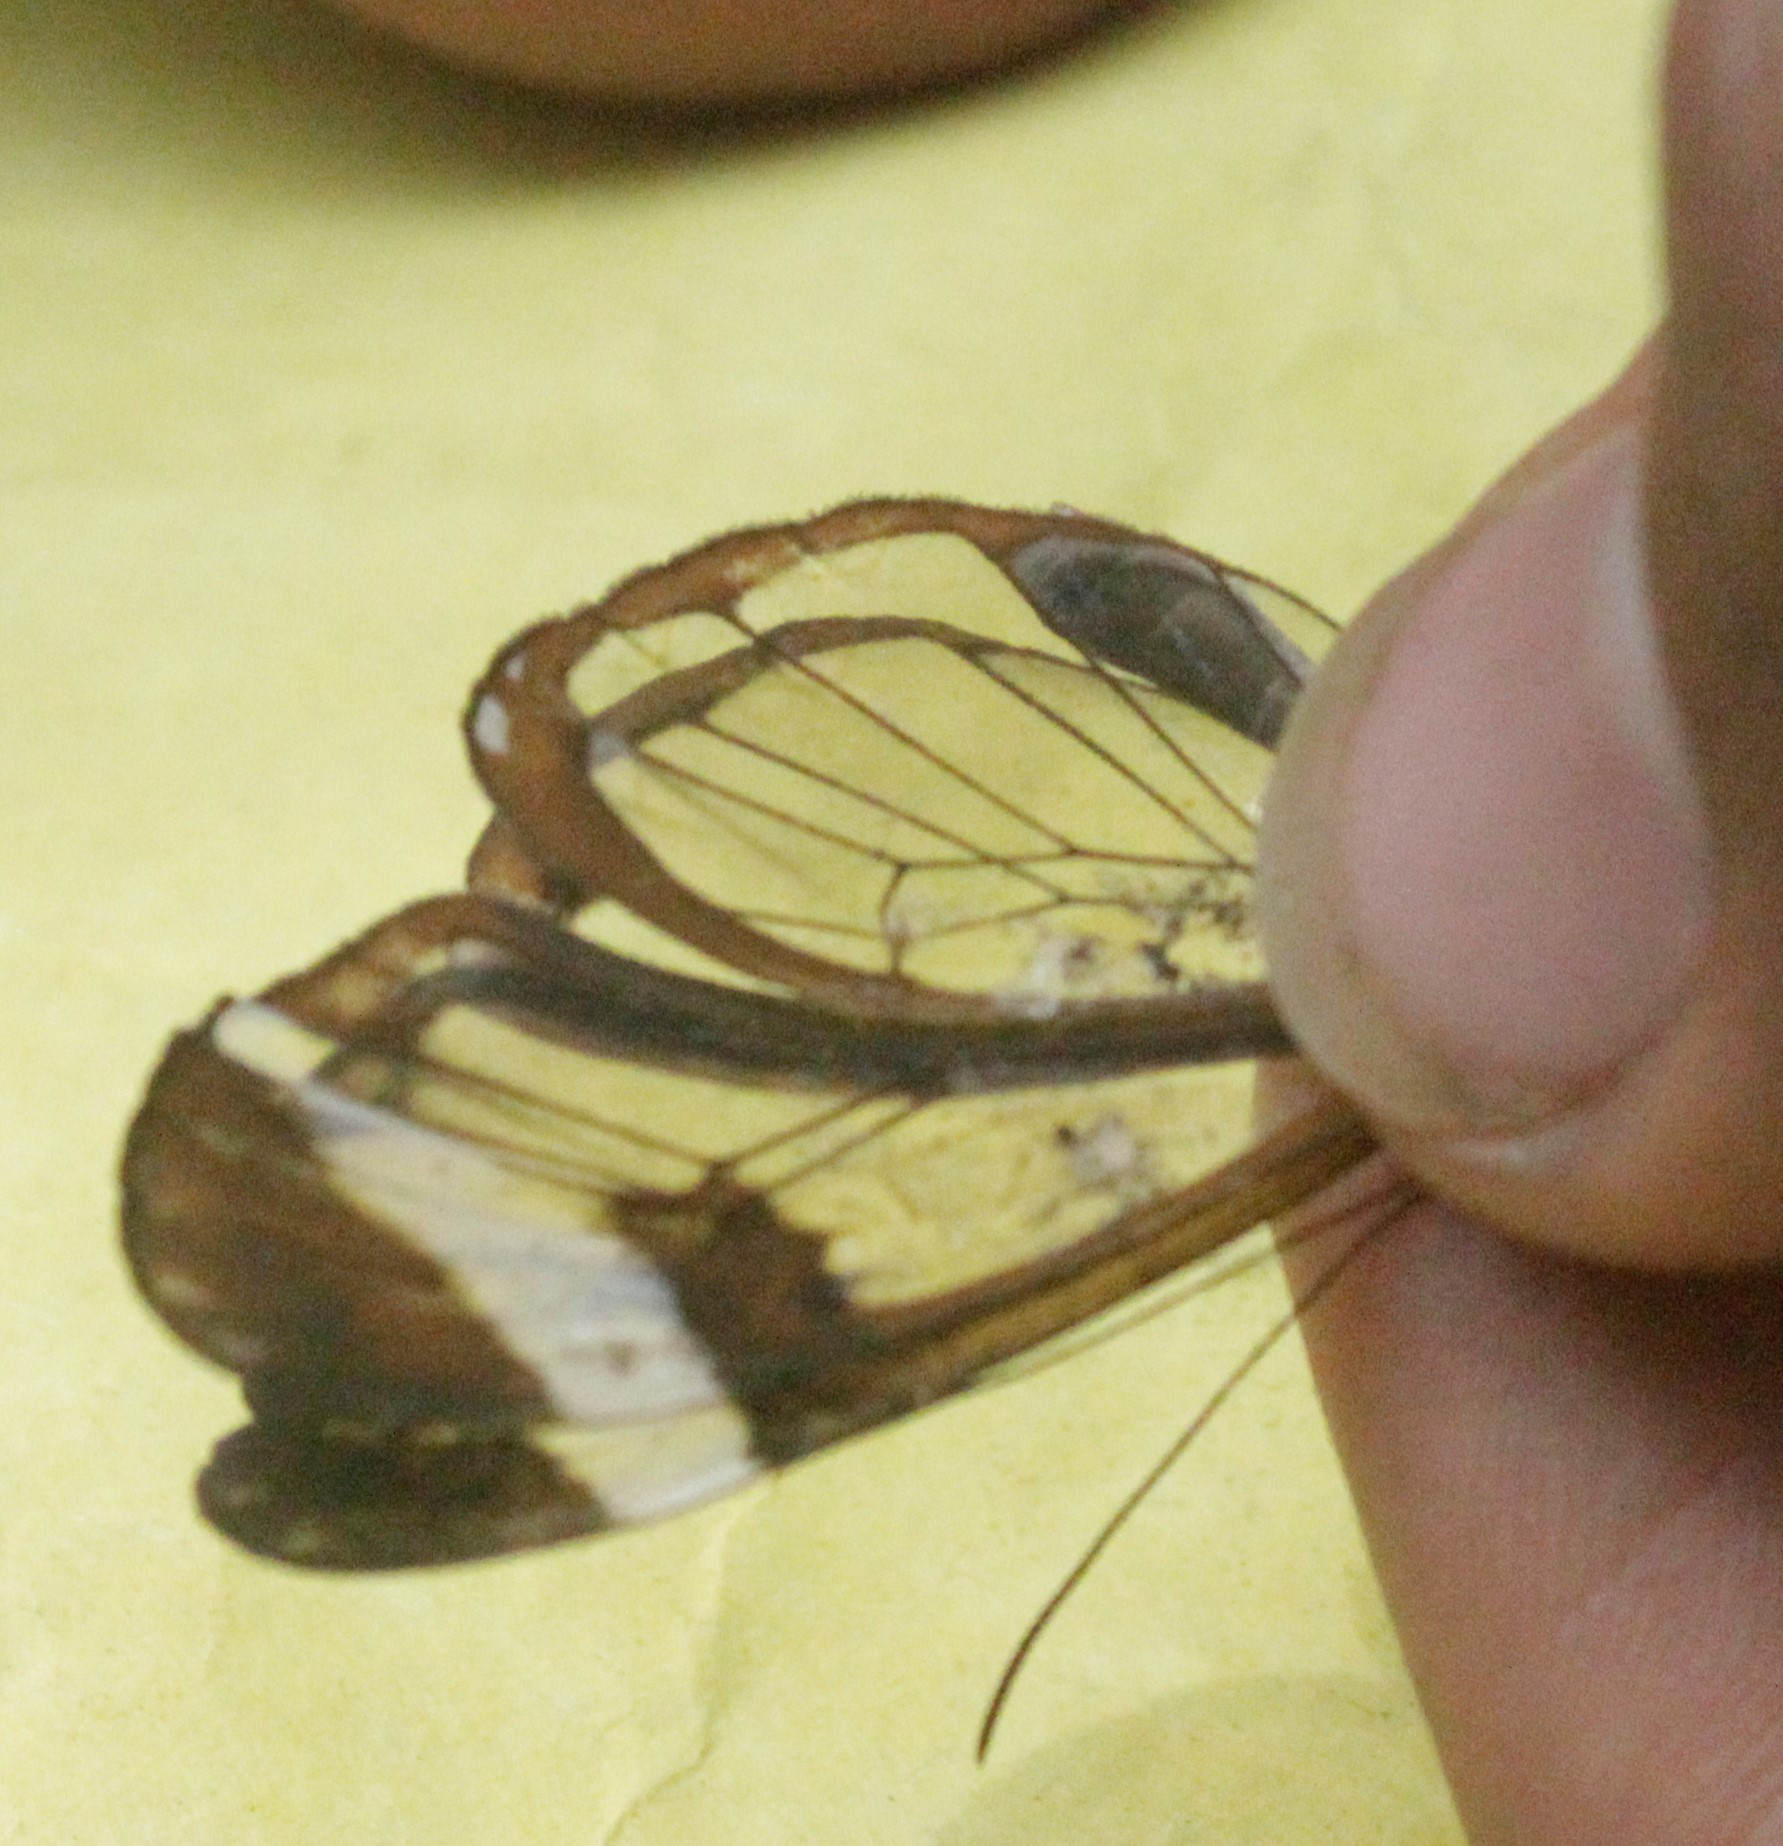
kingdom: Animalia
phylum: Arthropoda
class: Insecta
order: Lepidoptera
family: Nymphalidae
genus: Greta
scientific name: Greta morgane
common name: Thick-tipped greta
